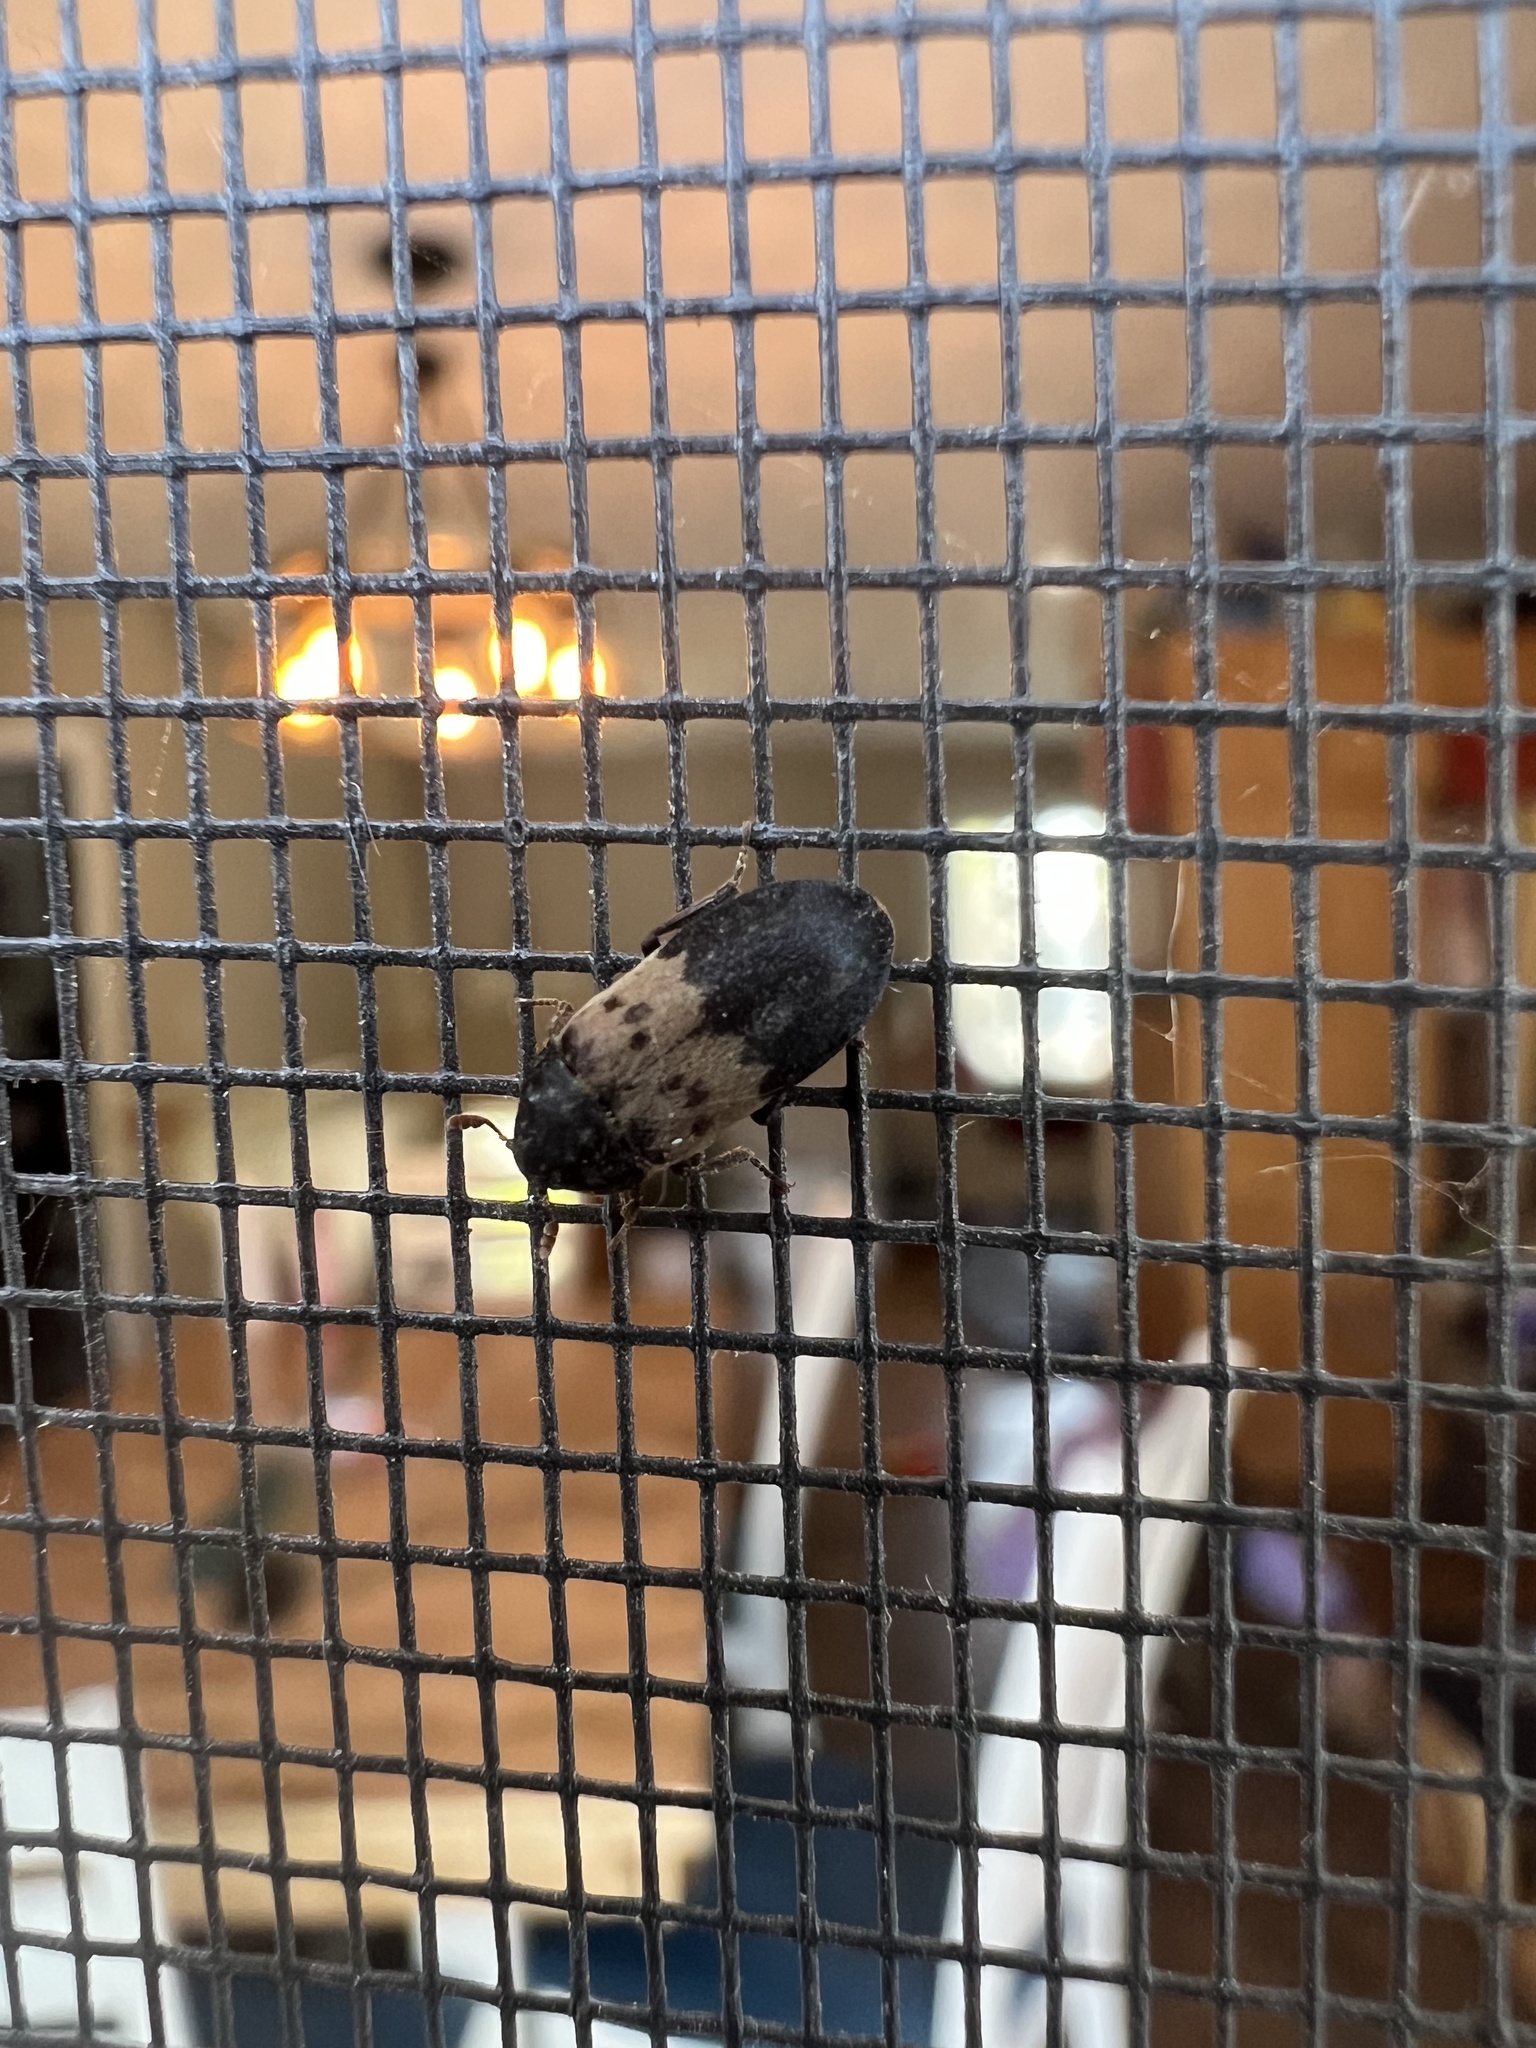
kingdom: Animalia
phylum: Arthropoda
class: Insecta
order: Coleoptera
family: Dermestidae
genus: Dermestes
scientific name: Dermestes lardarius
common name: Larder beetle
